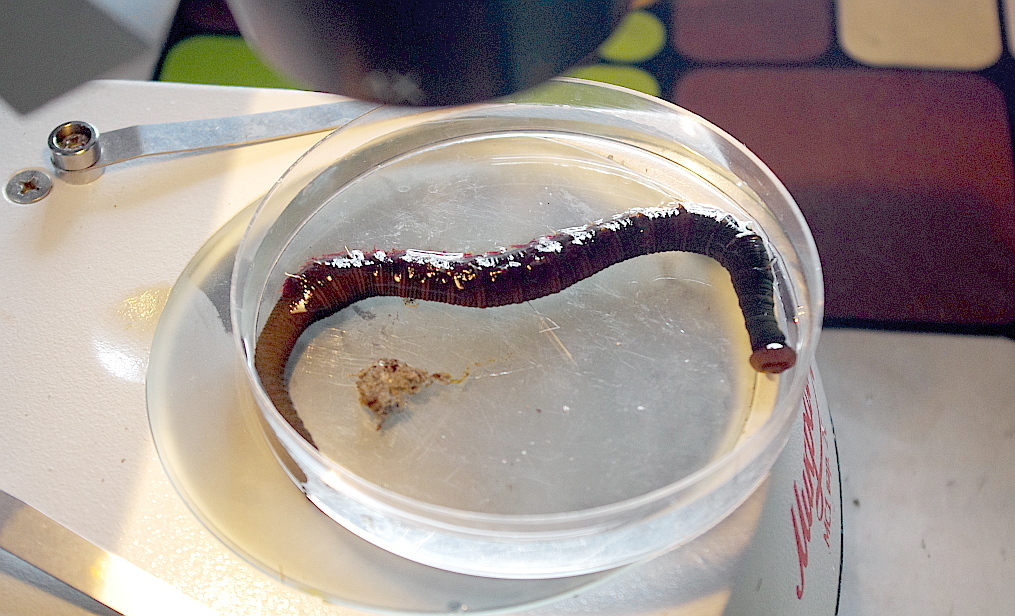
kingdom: Animalia
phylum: Annelida
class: Polychaeta
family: Arenicolidae
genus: Arenicola
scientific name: Arenicola marina
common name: Blow lugworm
